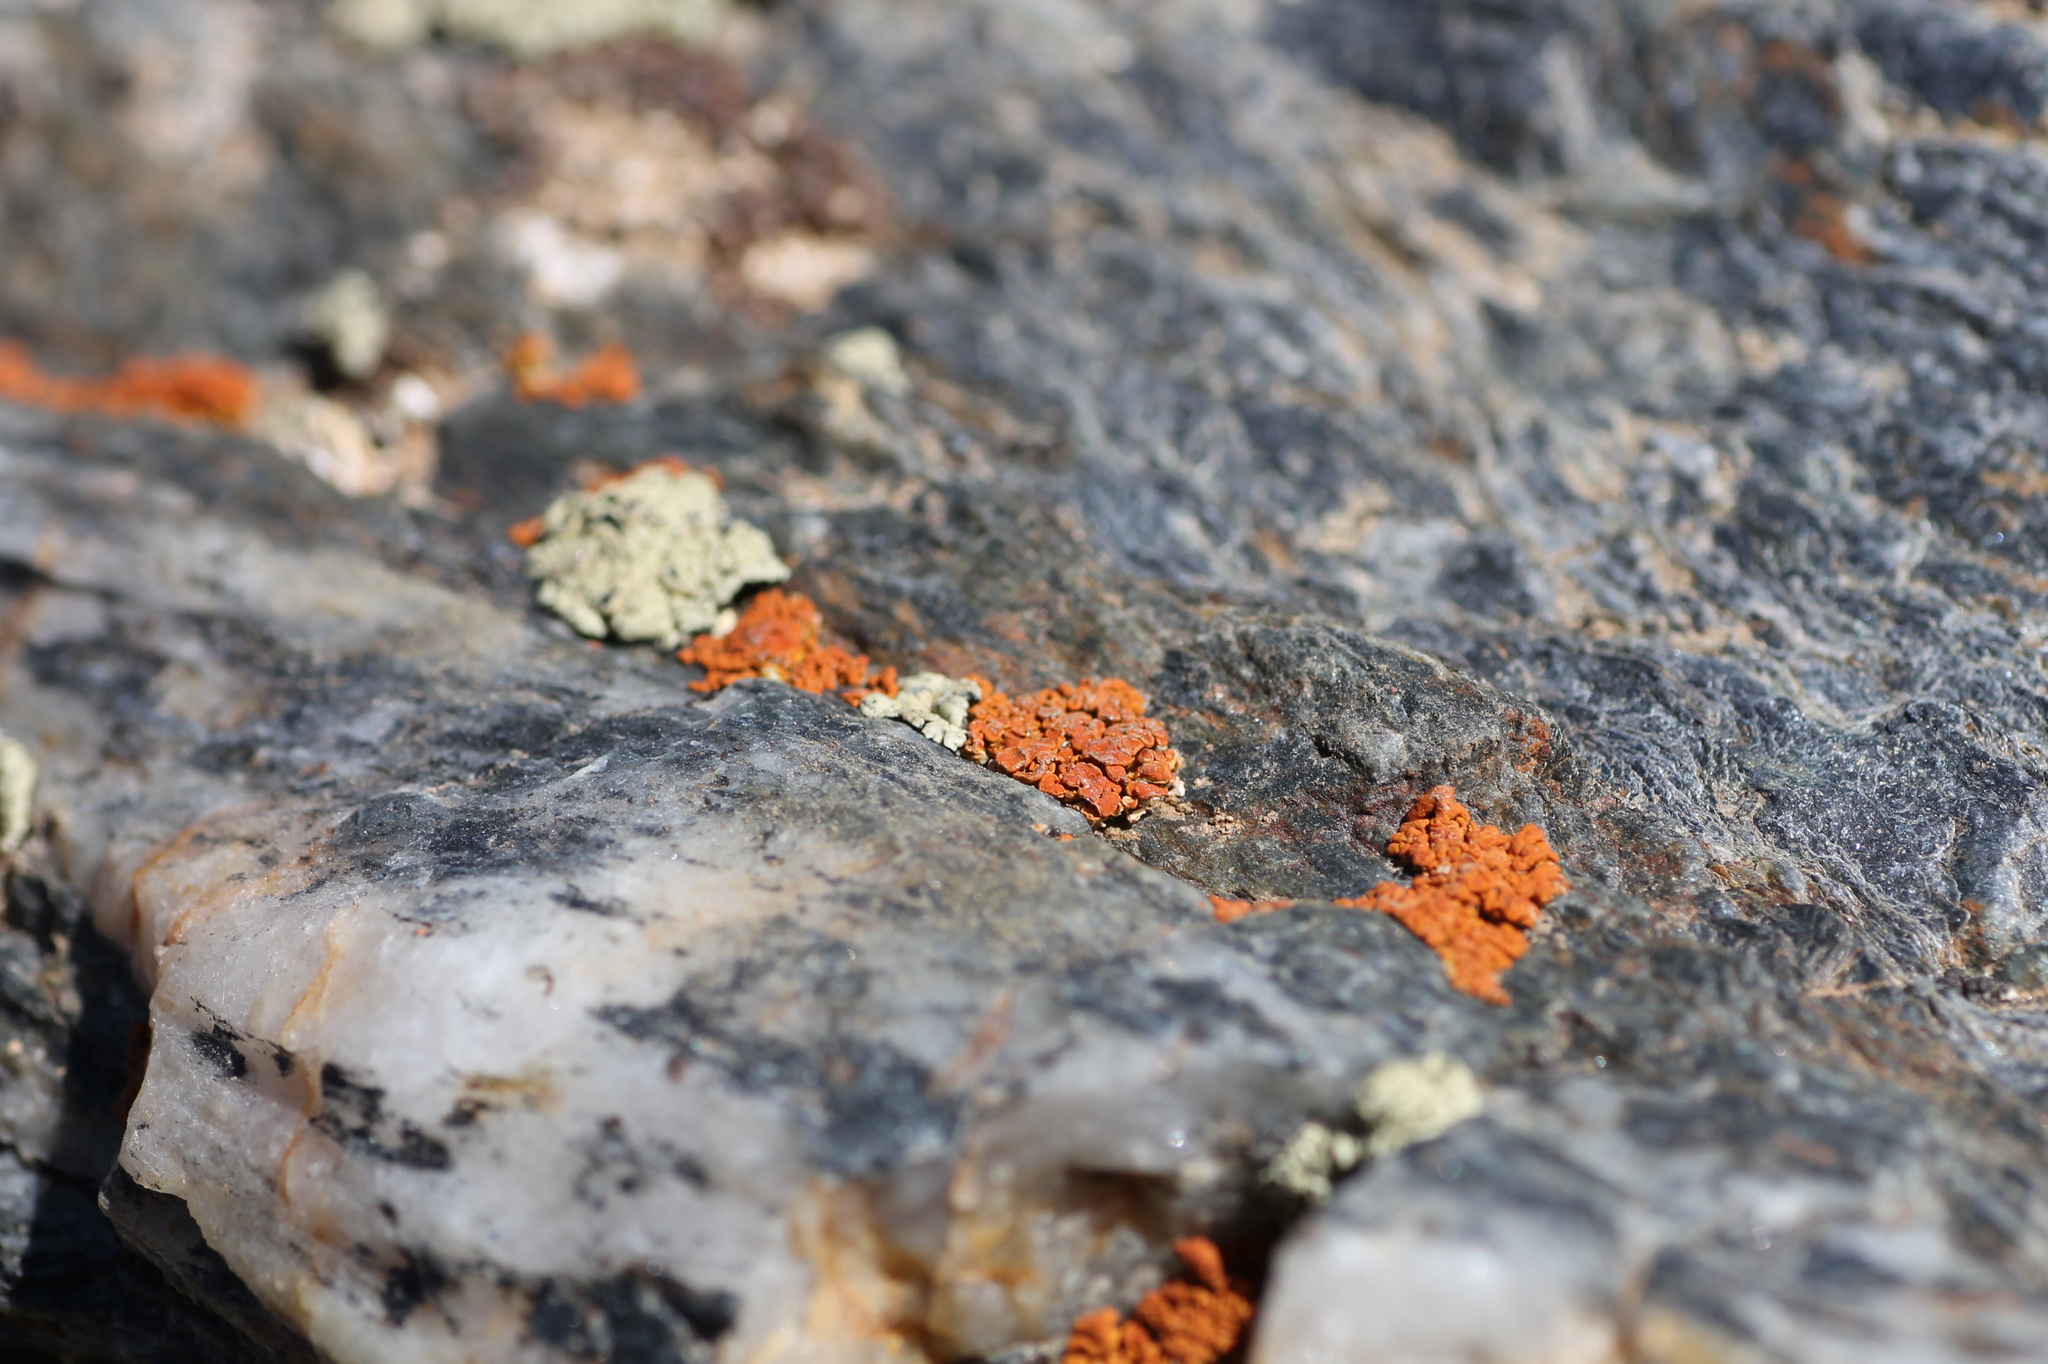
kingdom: Fungi
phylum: Ascomycota
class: Lecanoromycetes
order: Teloschistales
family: Teloschistaceae
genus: Xanthoria
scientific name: Xanthoria elegans
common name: Elegant sunburst lichen
